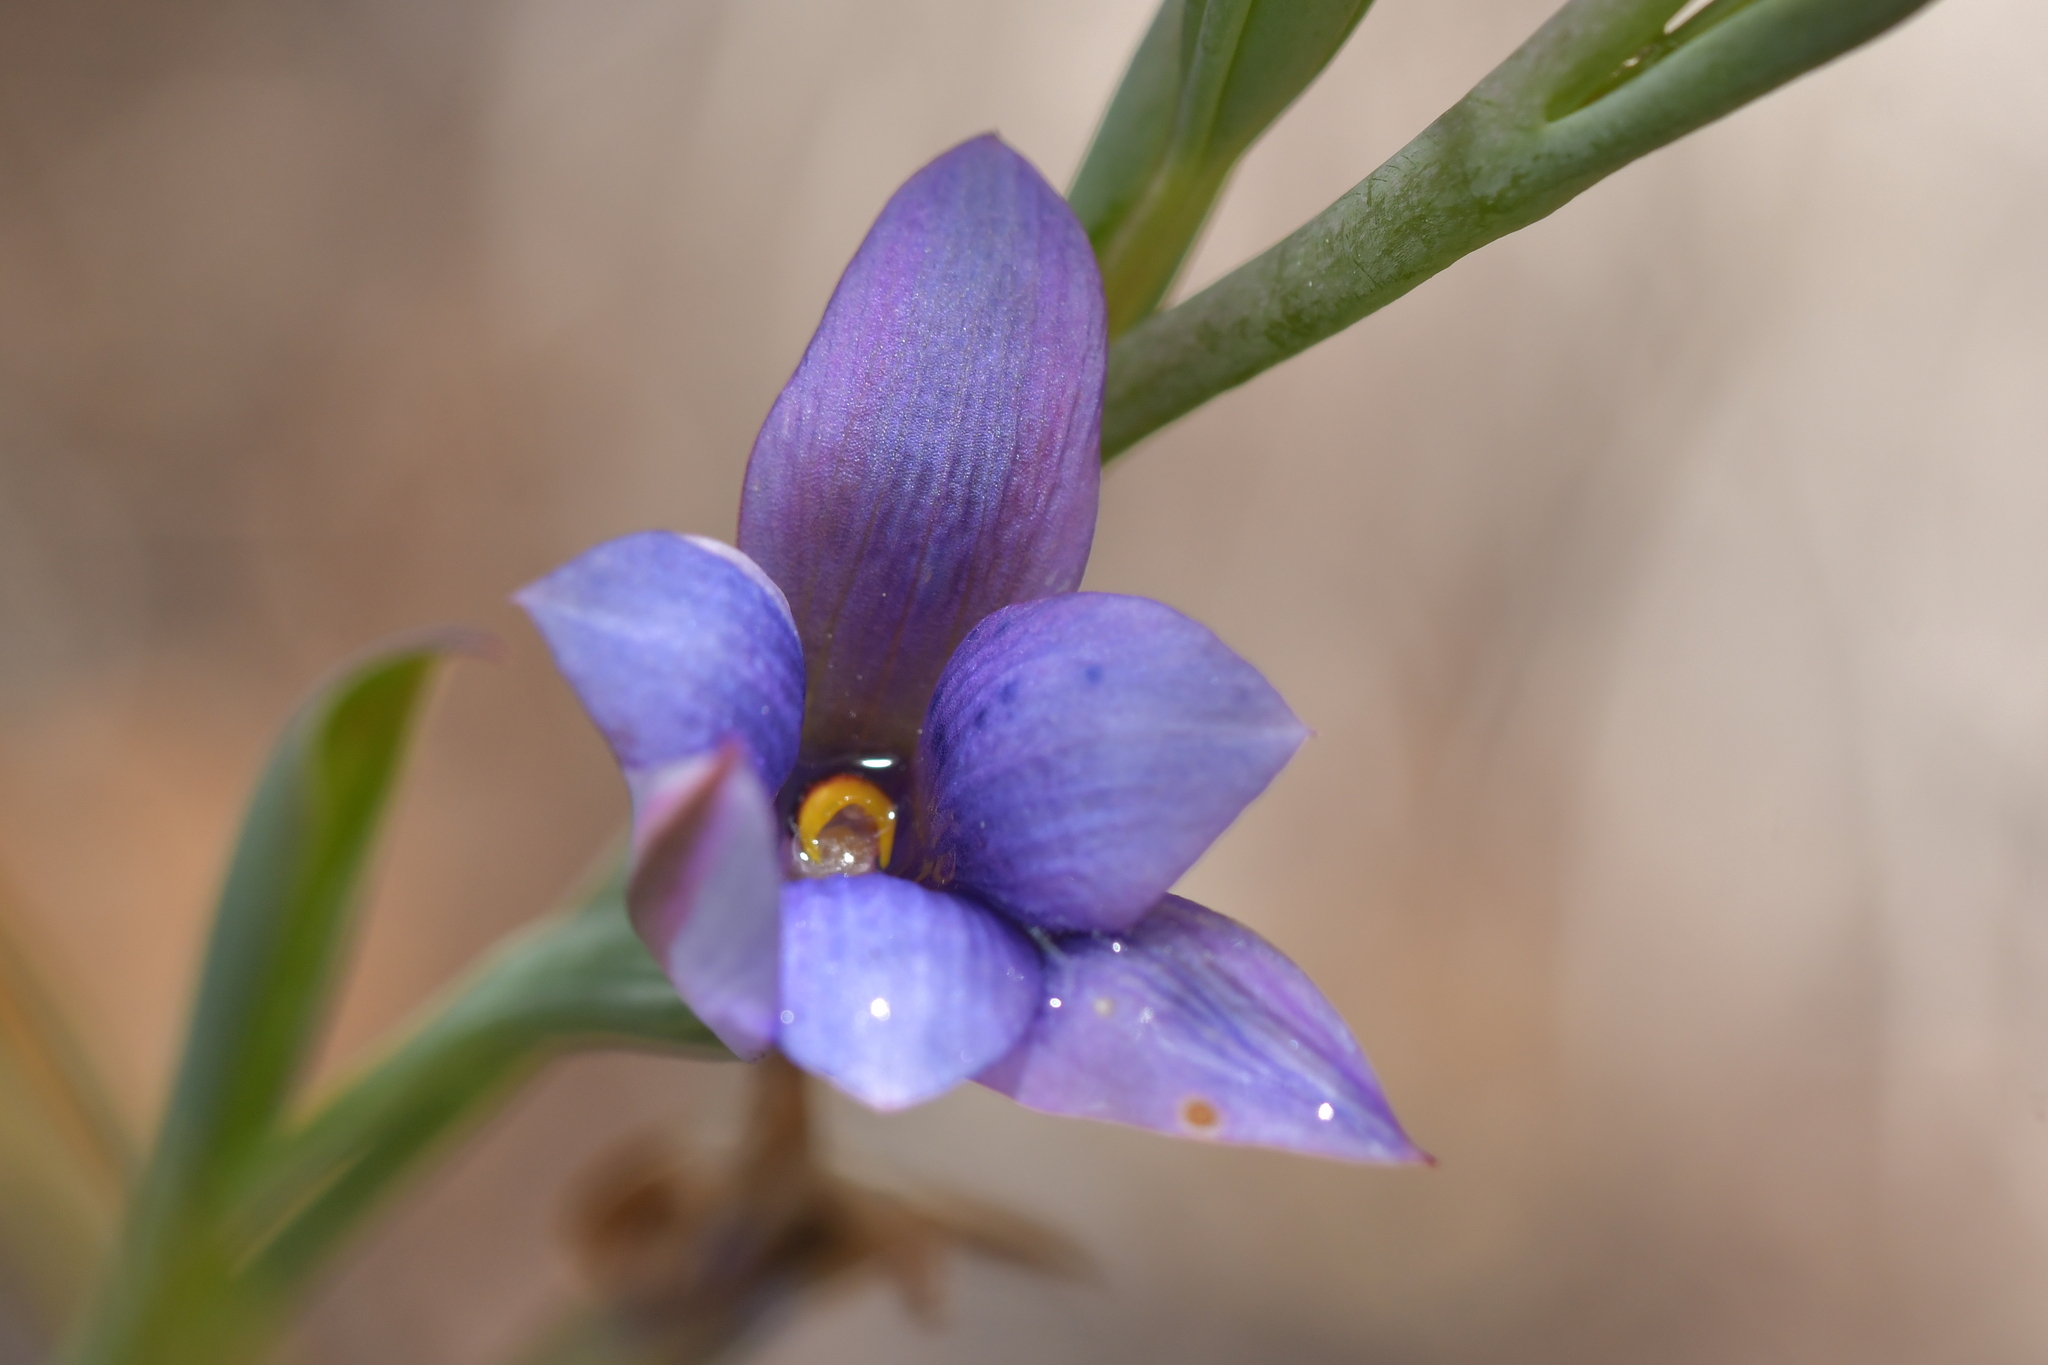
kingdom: Plantae
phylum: Tracheophyta
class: Liliopsida
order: Asparagales
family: Orchidaceae
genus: Thelymitra
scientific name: Thelymitra nervosa
